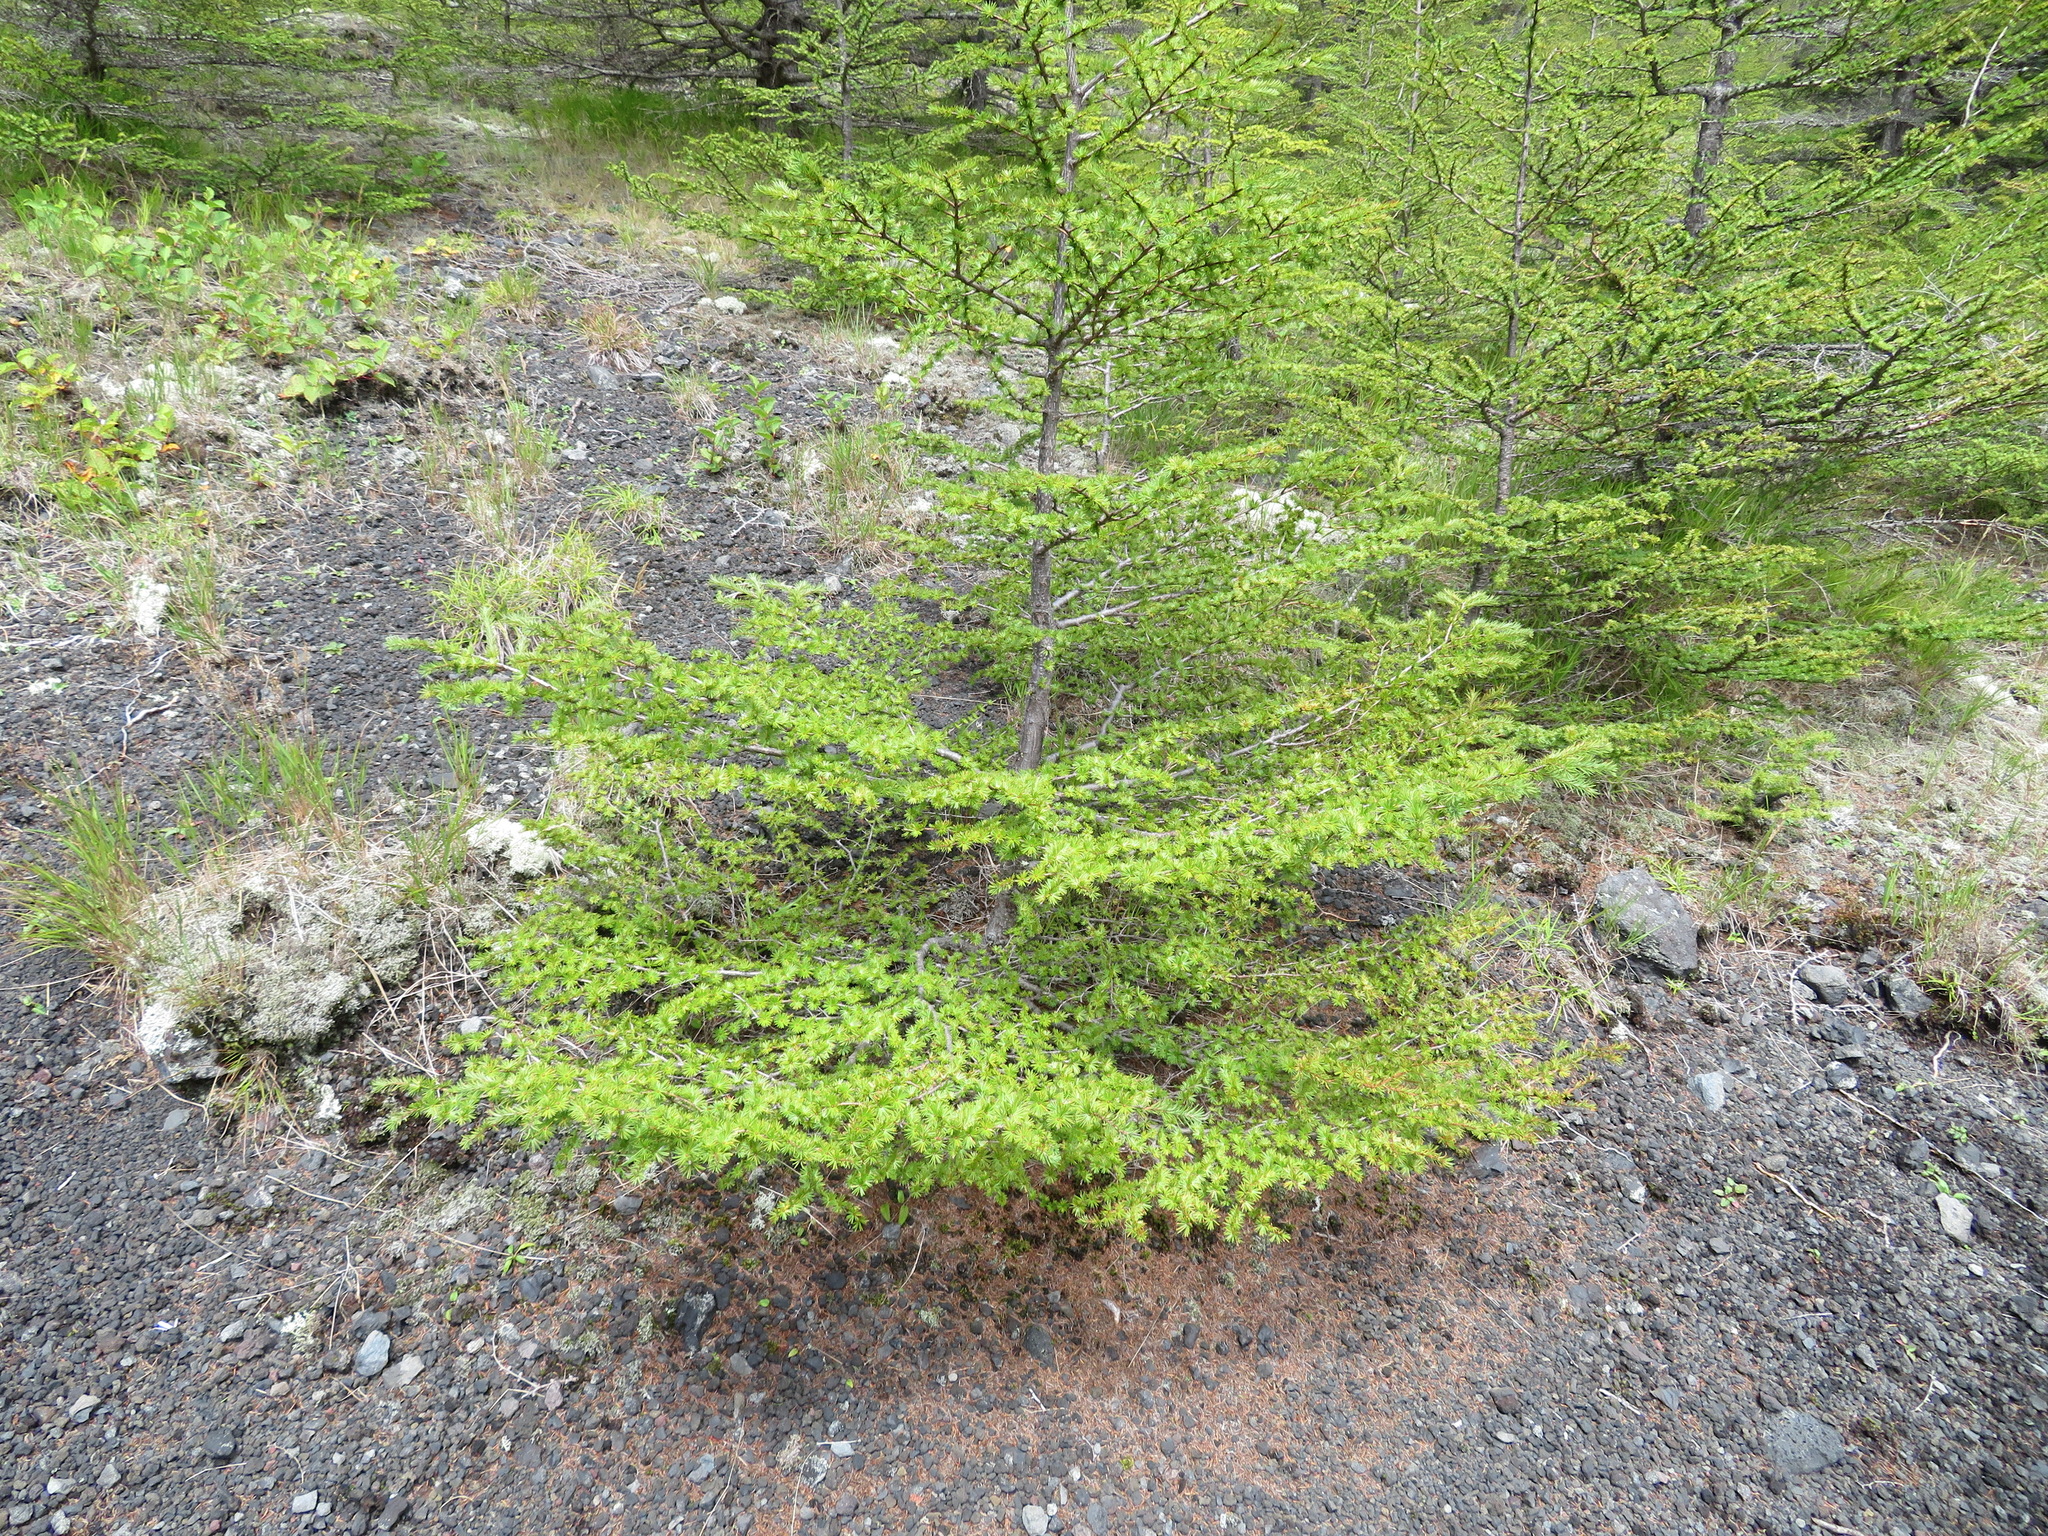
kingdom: Plantae
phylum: Tracheophyta
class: Pinopsida
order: Pinales
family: Pinaceae
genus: Larix
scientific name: Larix kaempferi
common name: Japanese larch
